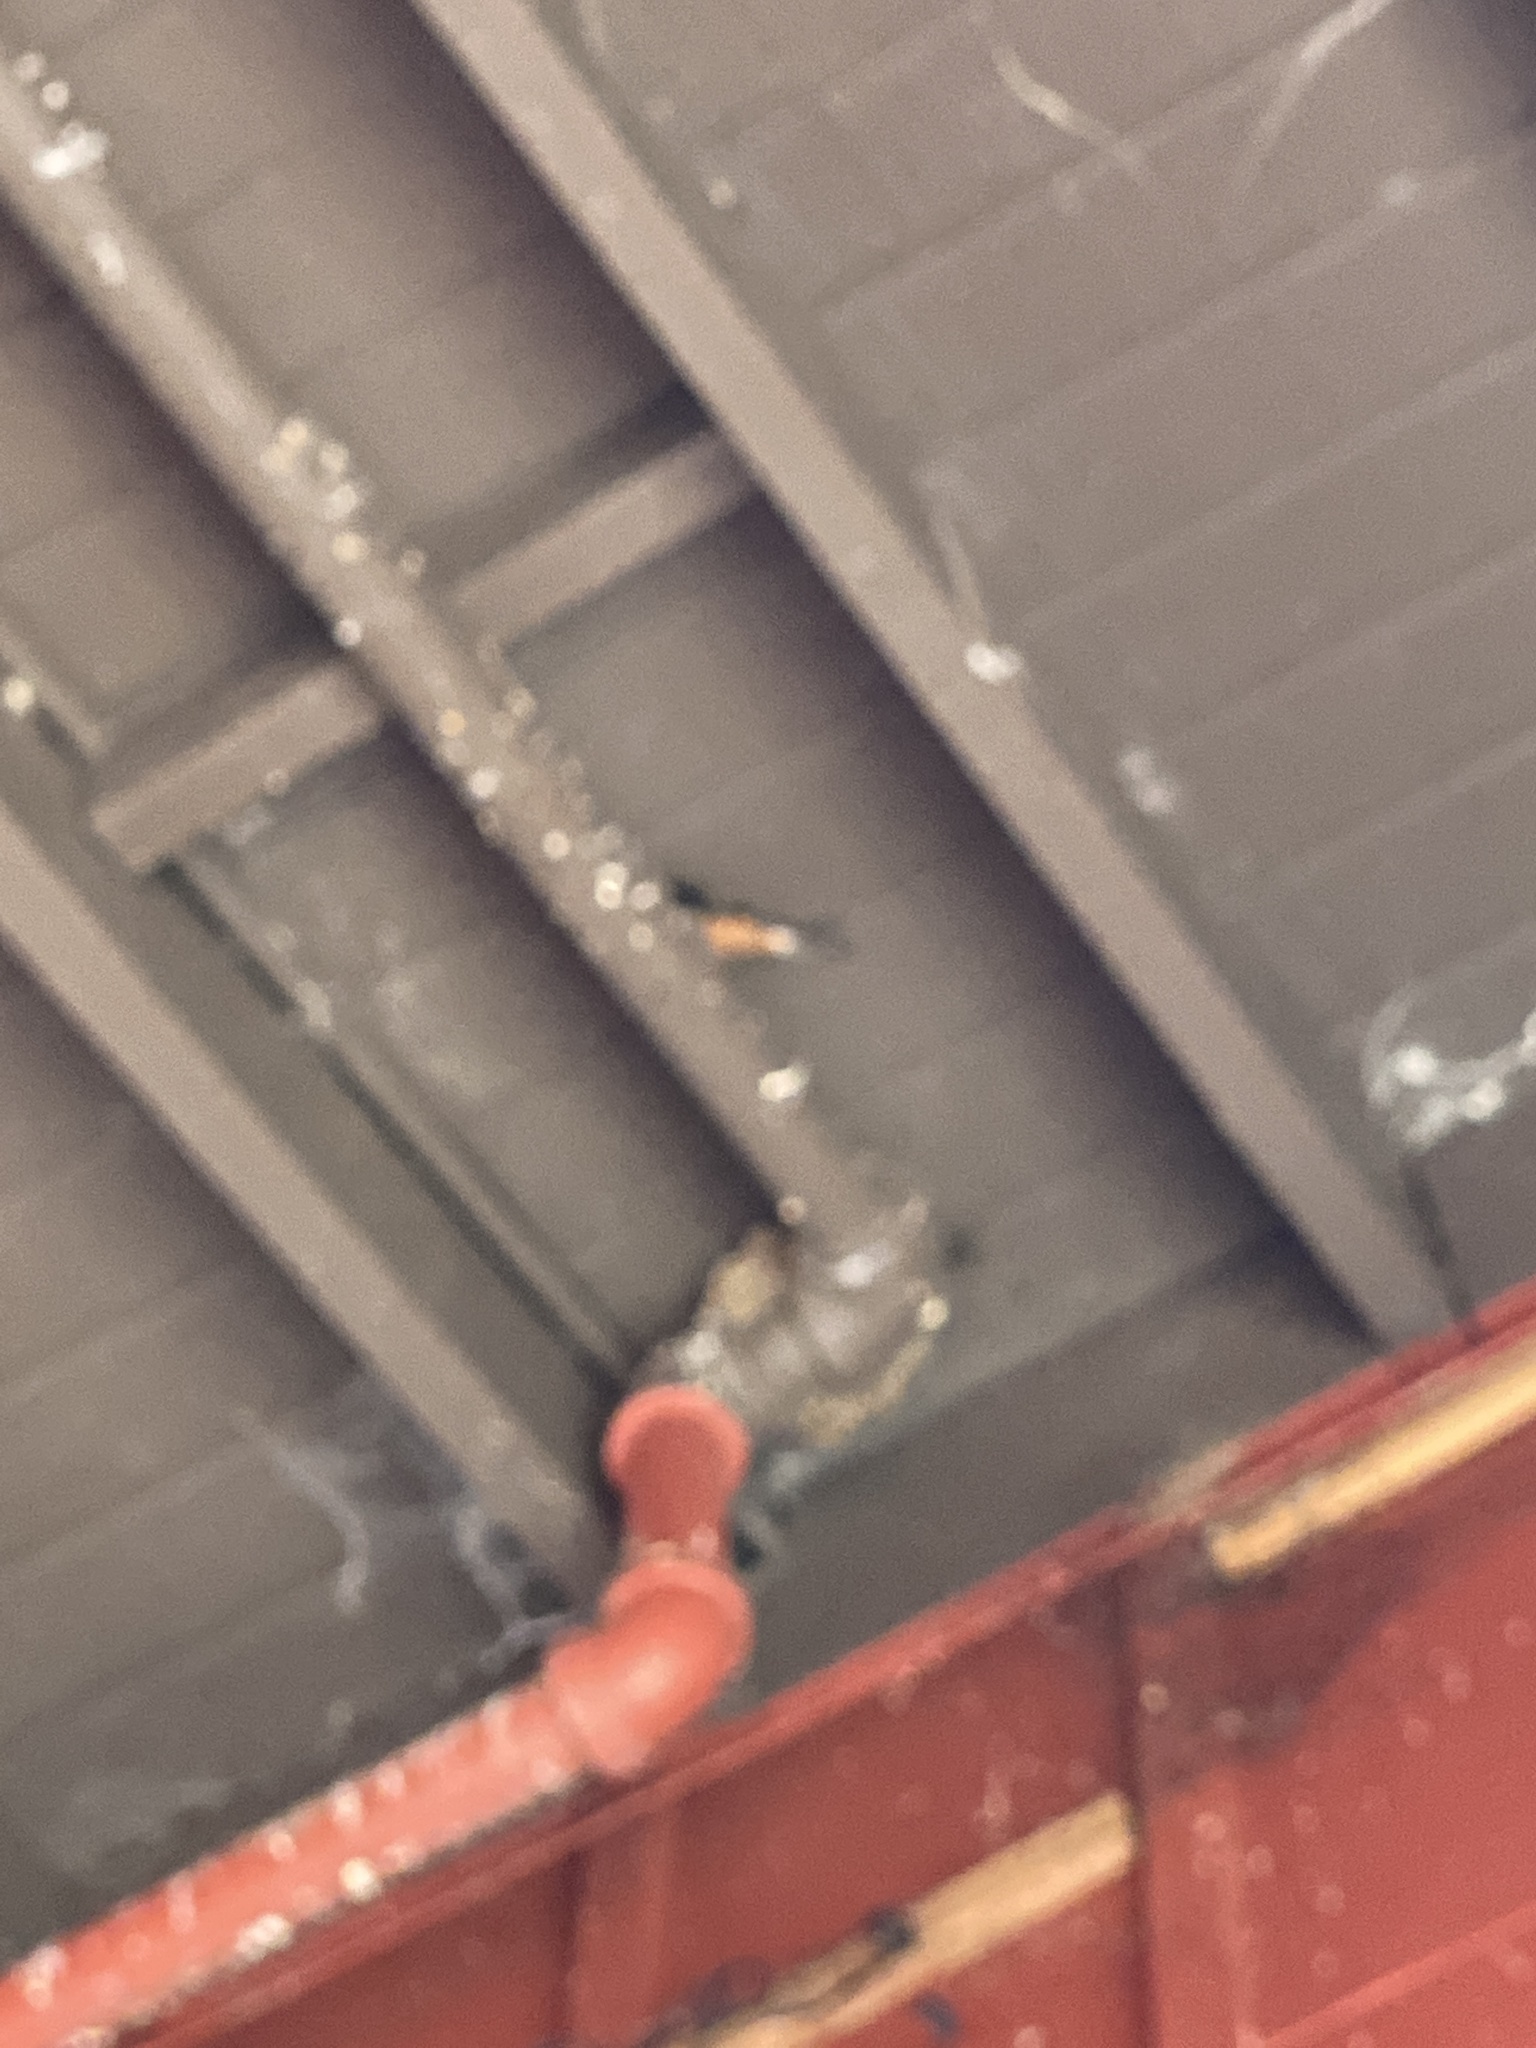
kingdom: Animalia
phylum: Chordata
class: Aves
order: Passeriformes
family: Hirundinidae
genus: Hirundo
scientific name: Hirundo rustica
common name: Barn swallow
